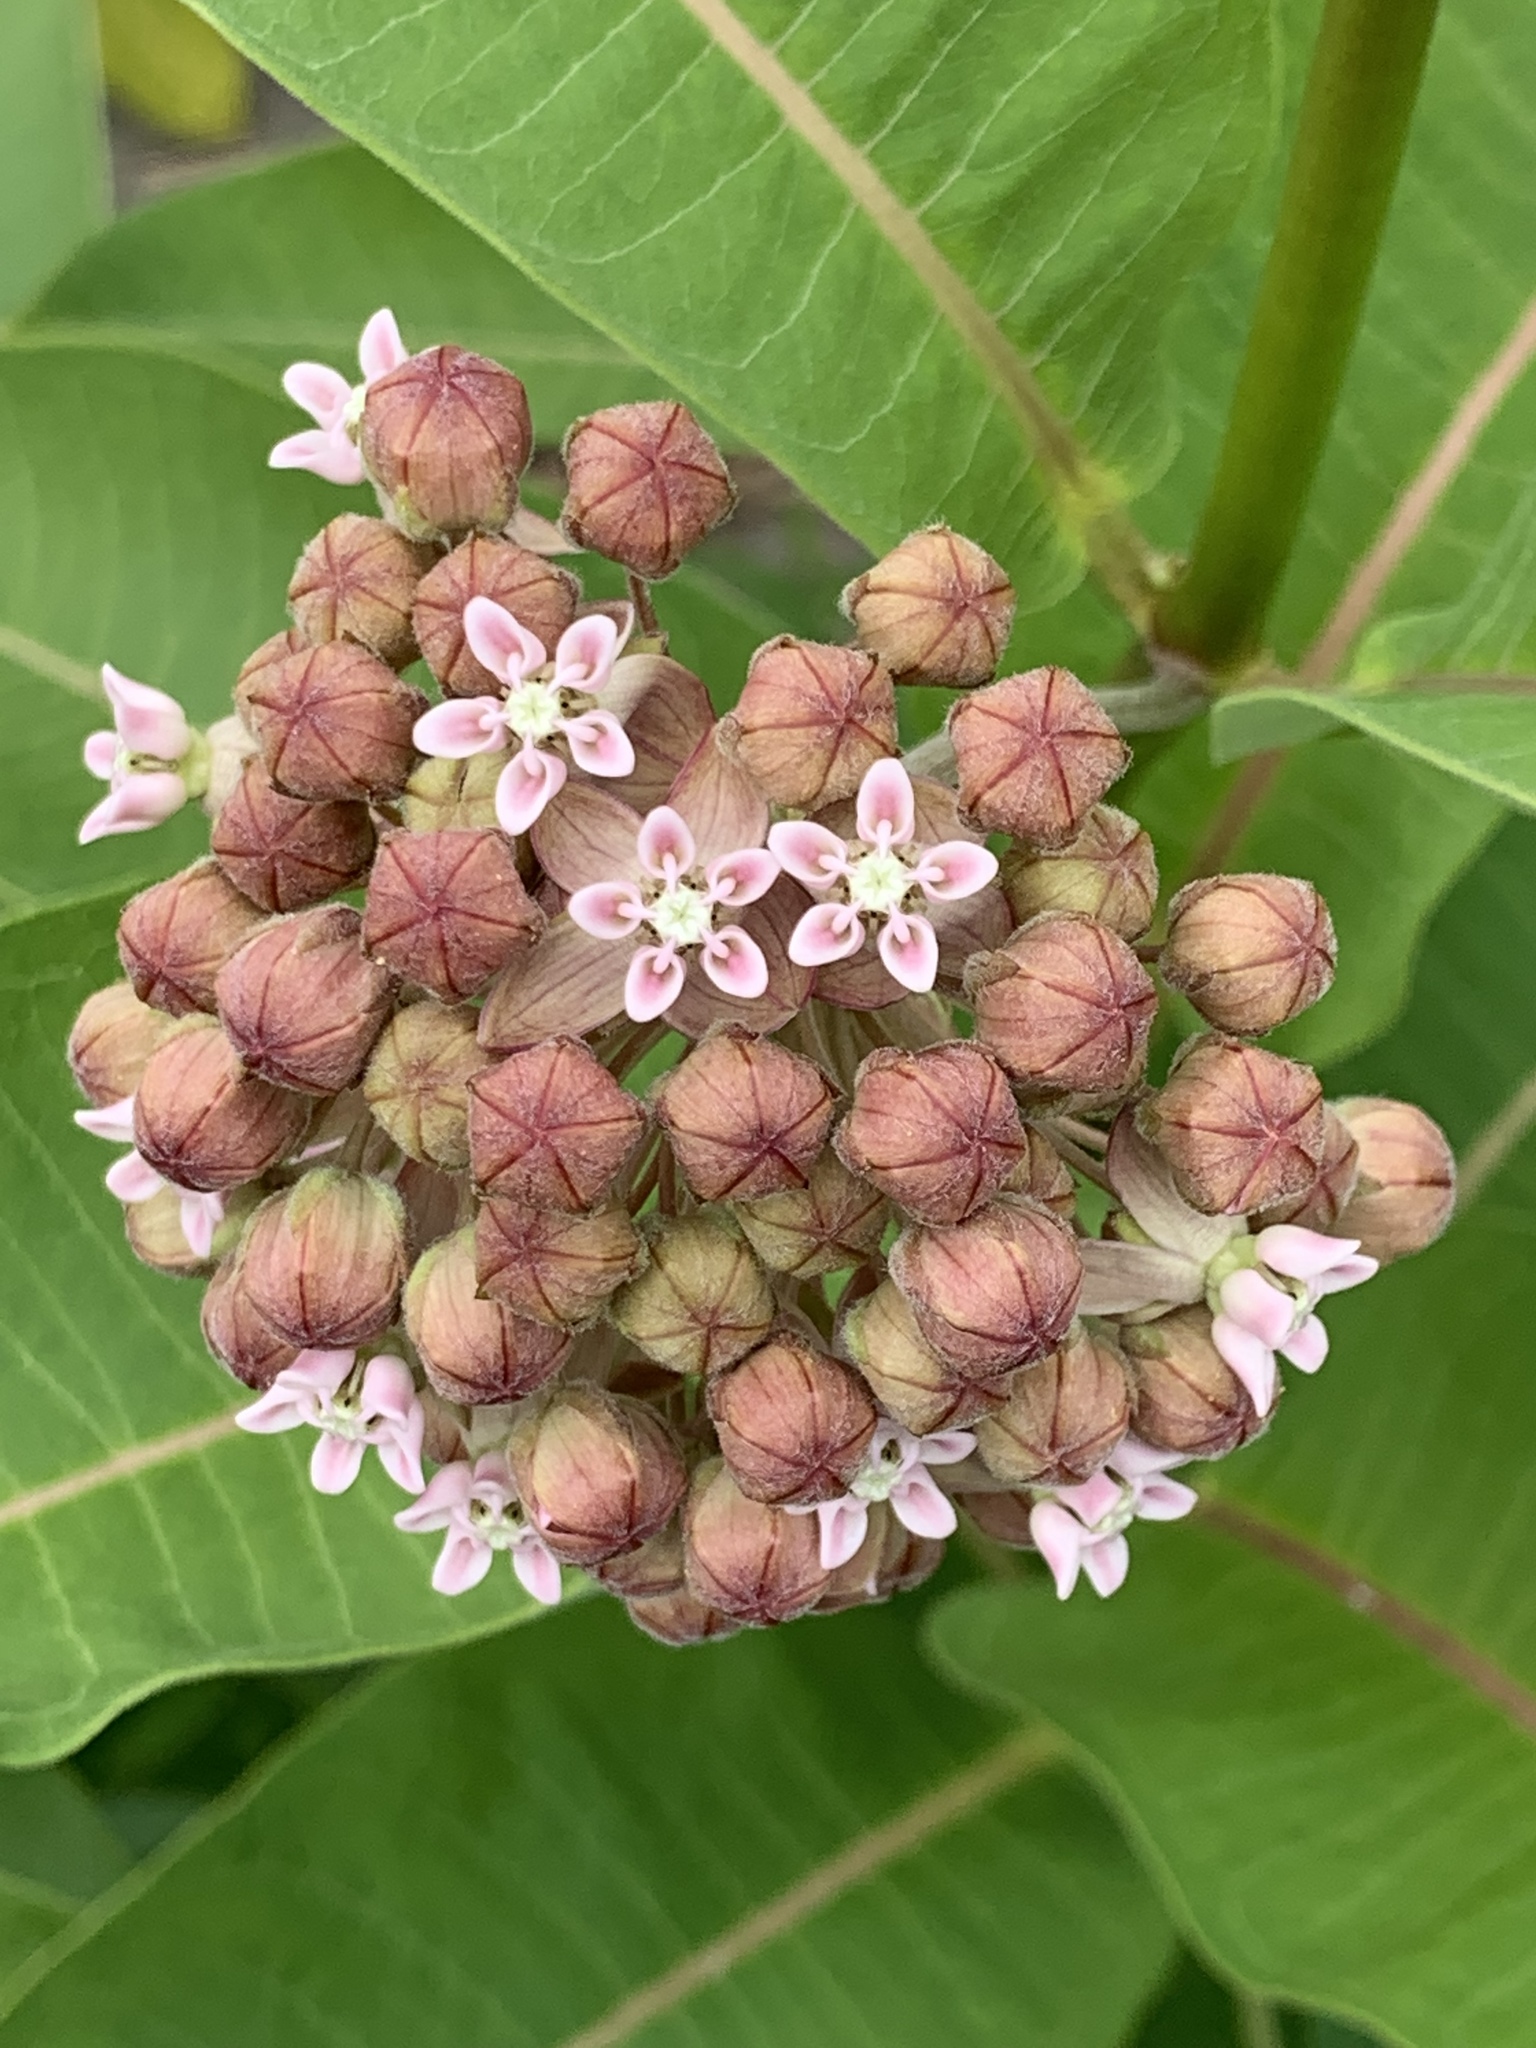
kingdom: Plantae
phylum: Tracheophyta
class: Magnoliopsida
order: Gentianales
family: Apocynaceae
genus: Asclepias
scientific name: Asclepias syriaca
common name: Common milkweed
